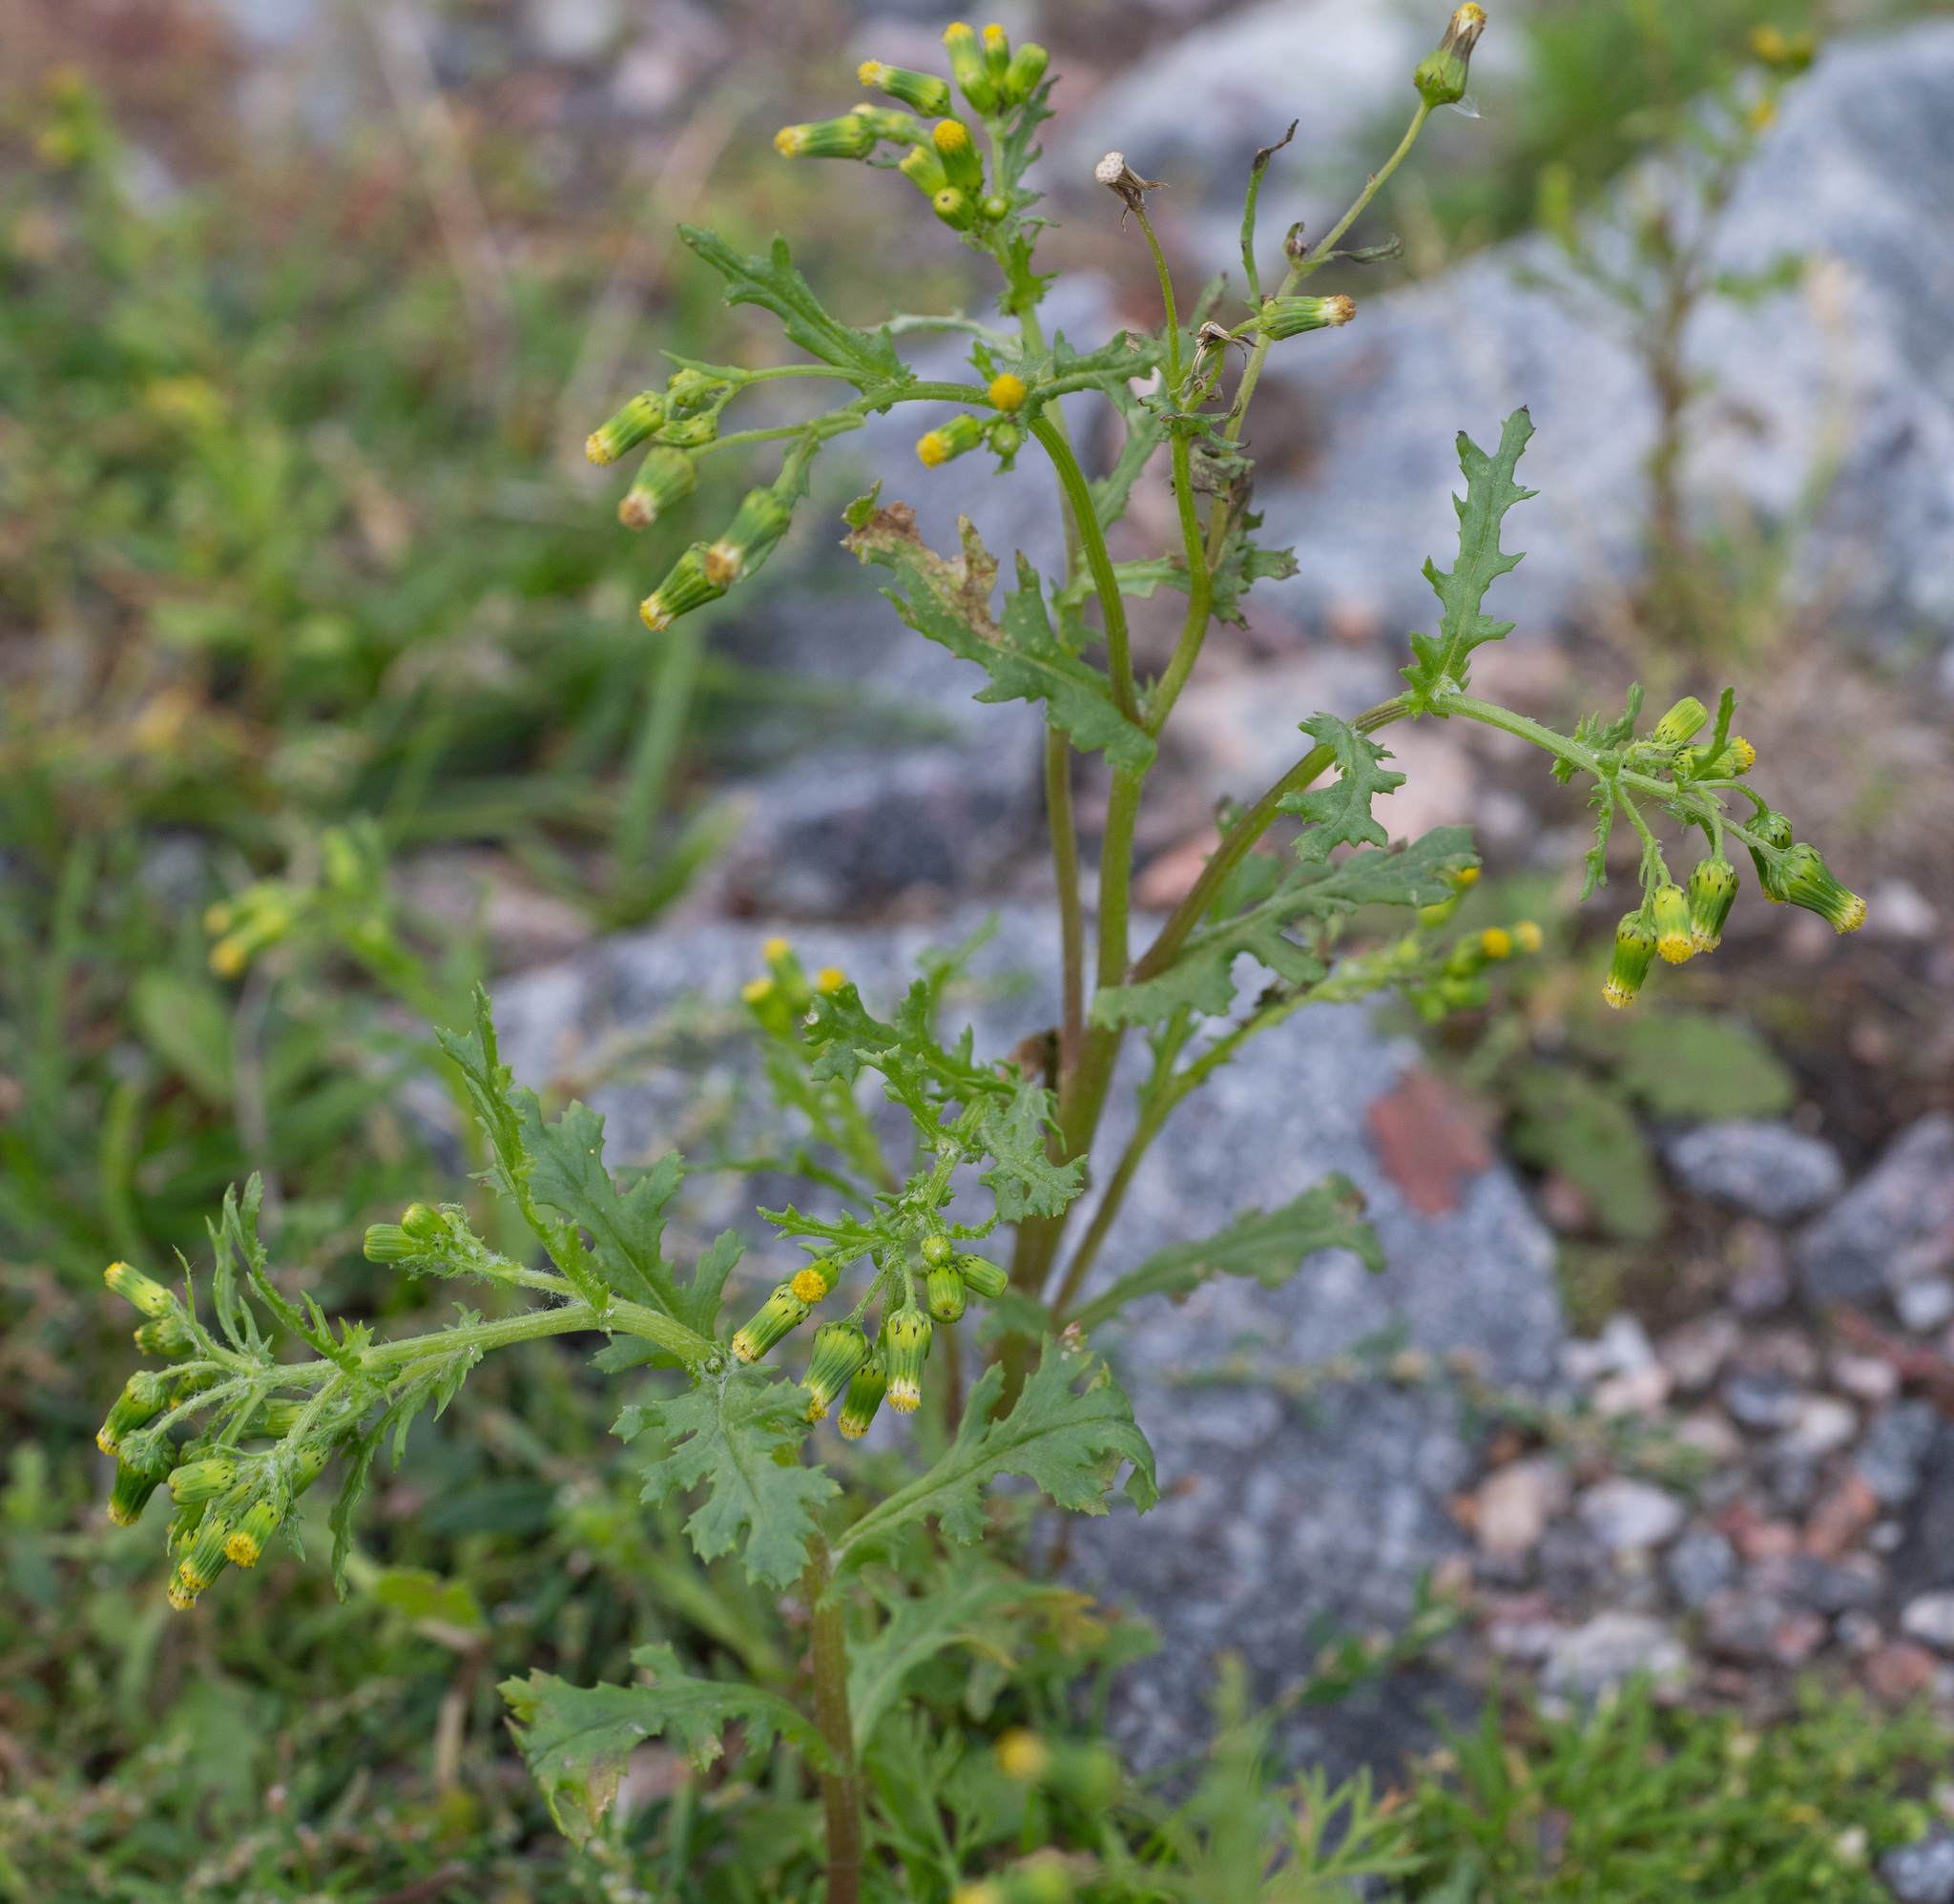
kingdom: Plantae
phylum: Tracheophyta
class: Magnoliopsida
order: Asterales
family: Asteraceae
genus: Senecio
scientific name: Senecio vulgaris
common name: Old-man-in-the-spring
